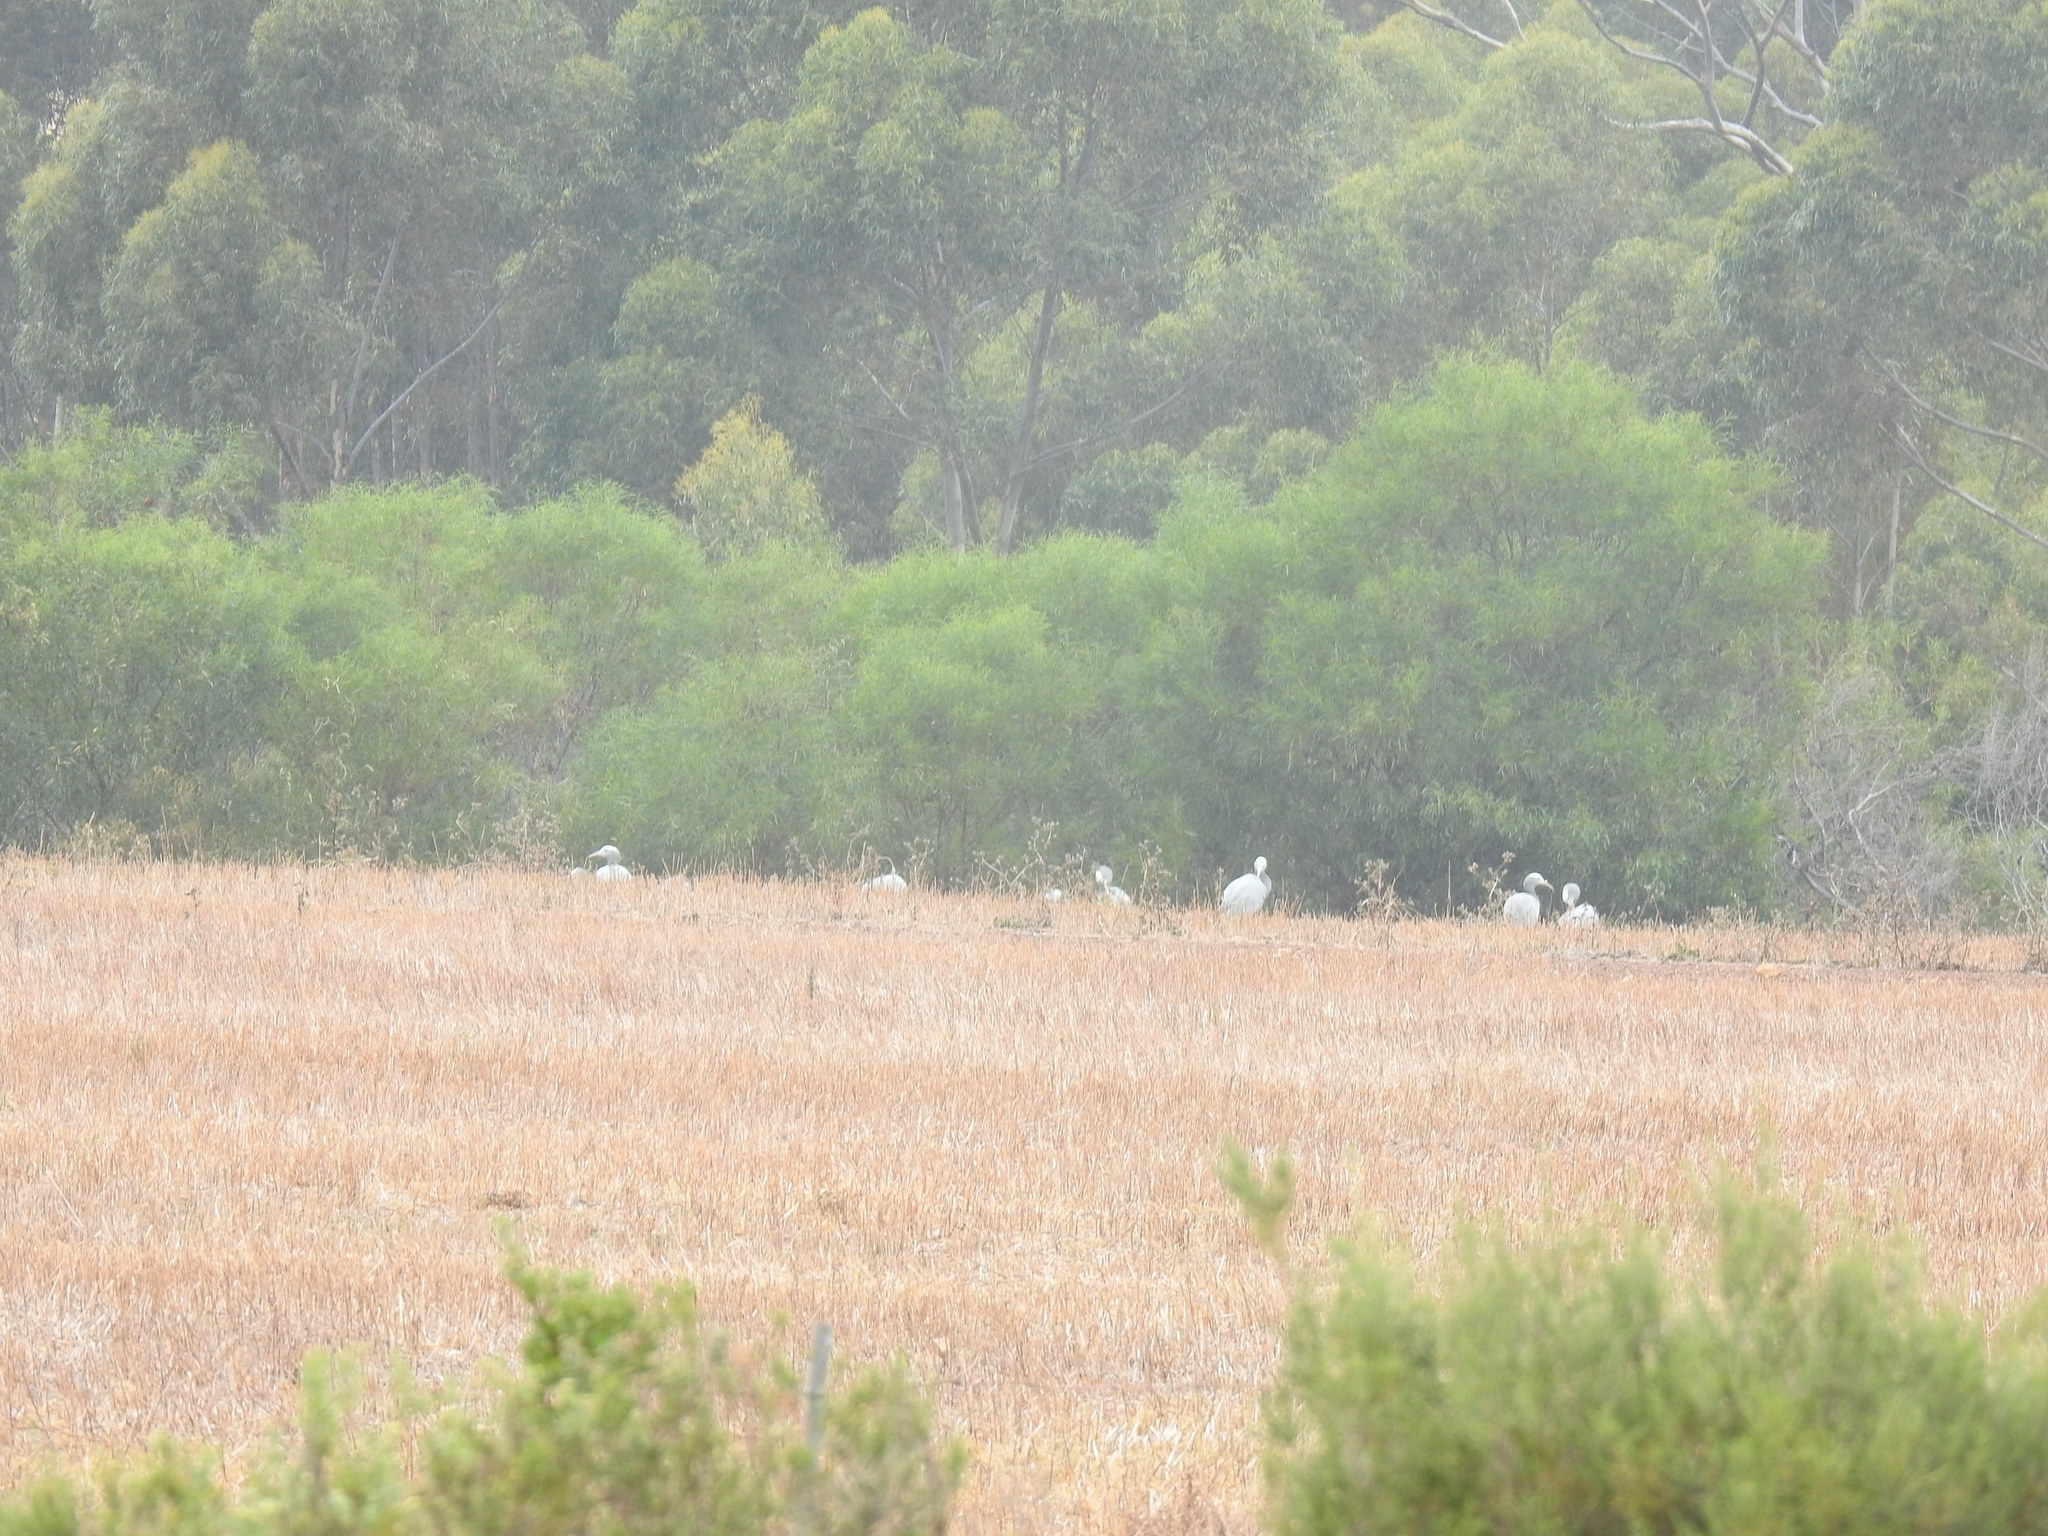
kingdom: Animalia
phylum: Chordata
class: Aves
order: Gruiformes
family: Gruidae
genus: Anthropoides
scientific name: Anthropoides paradiseus
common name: Blue crane
